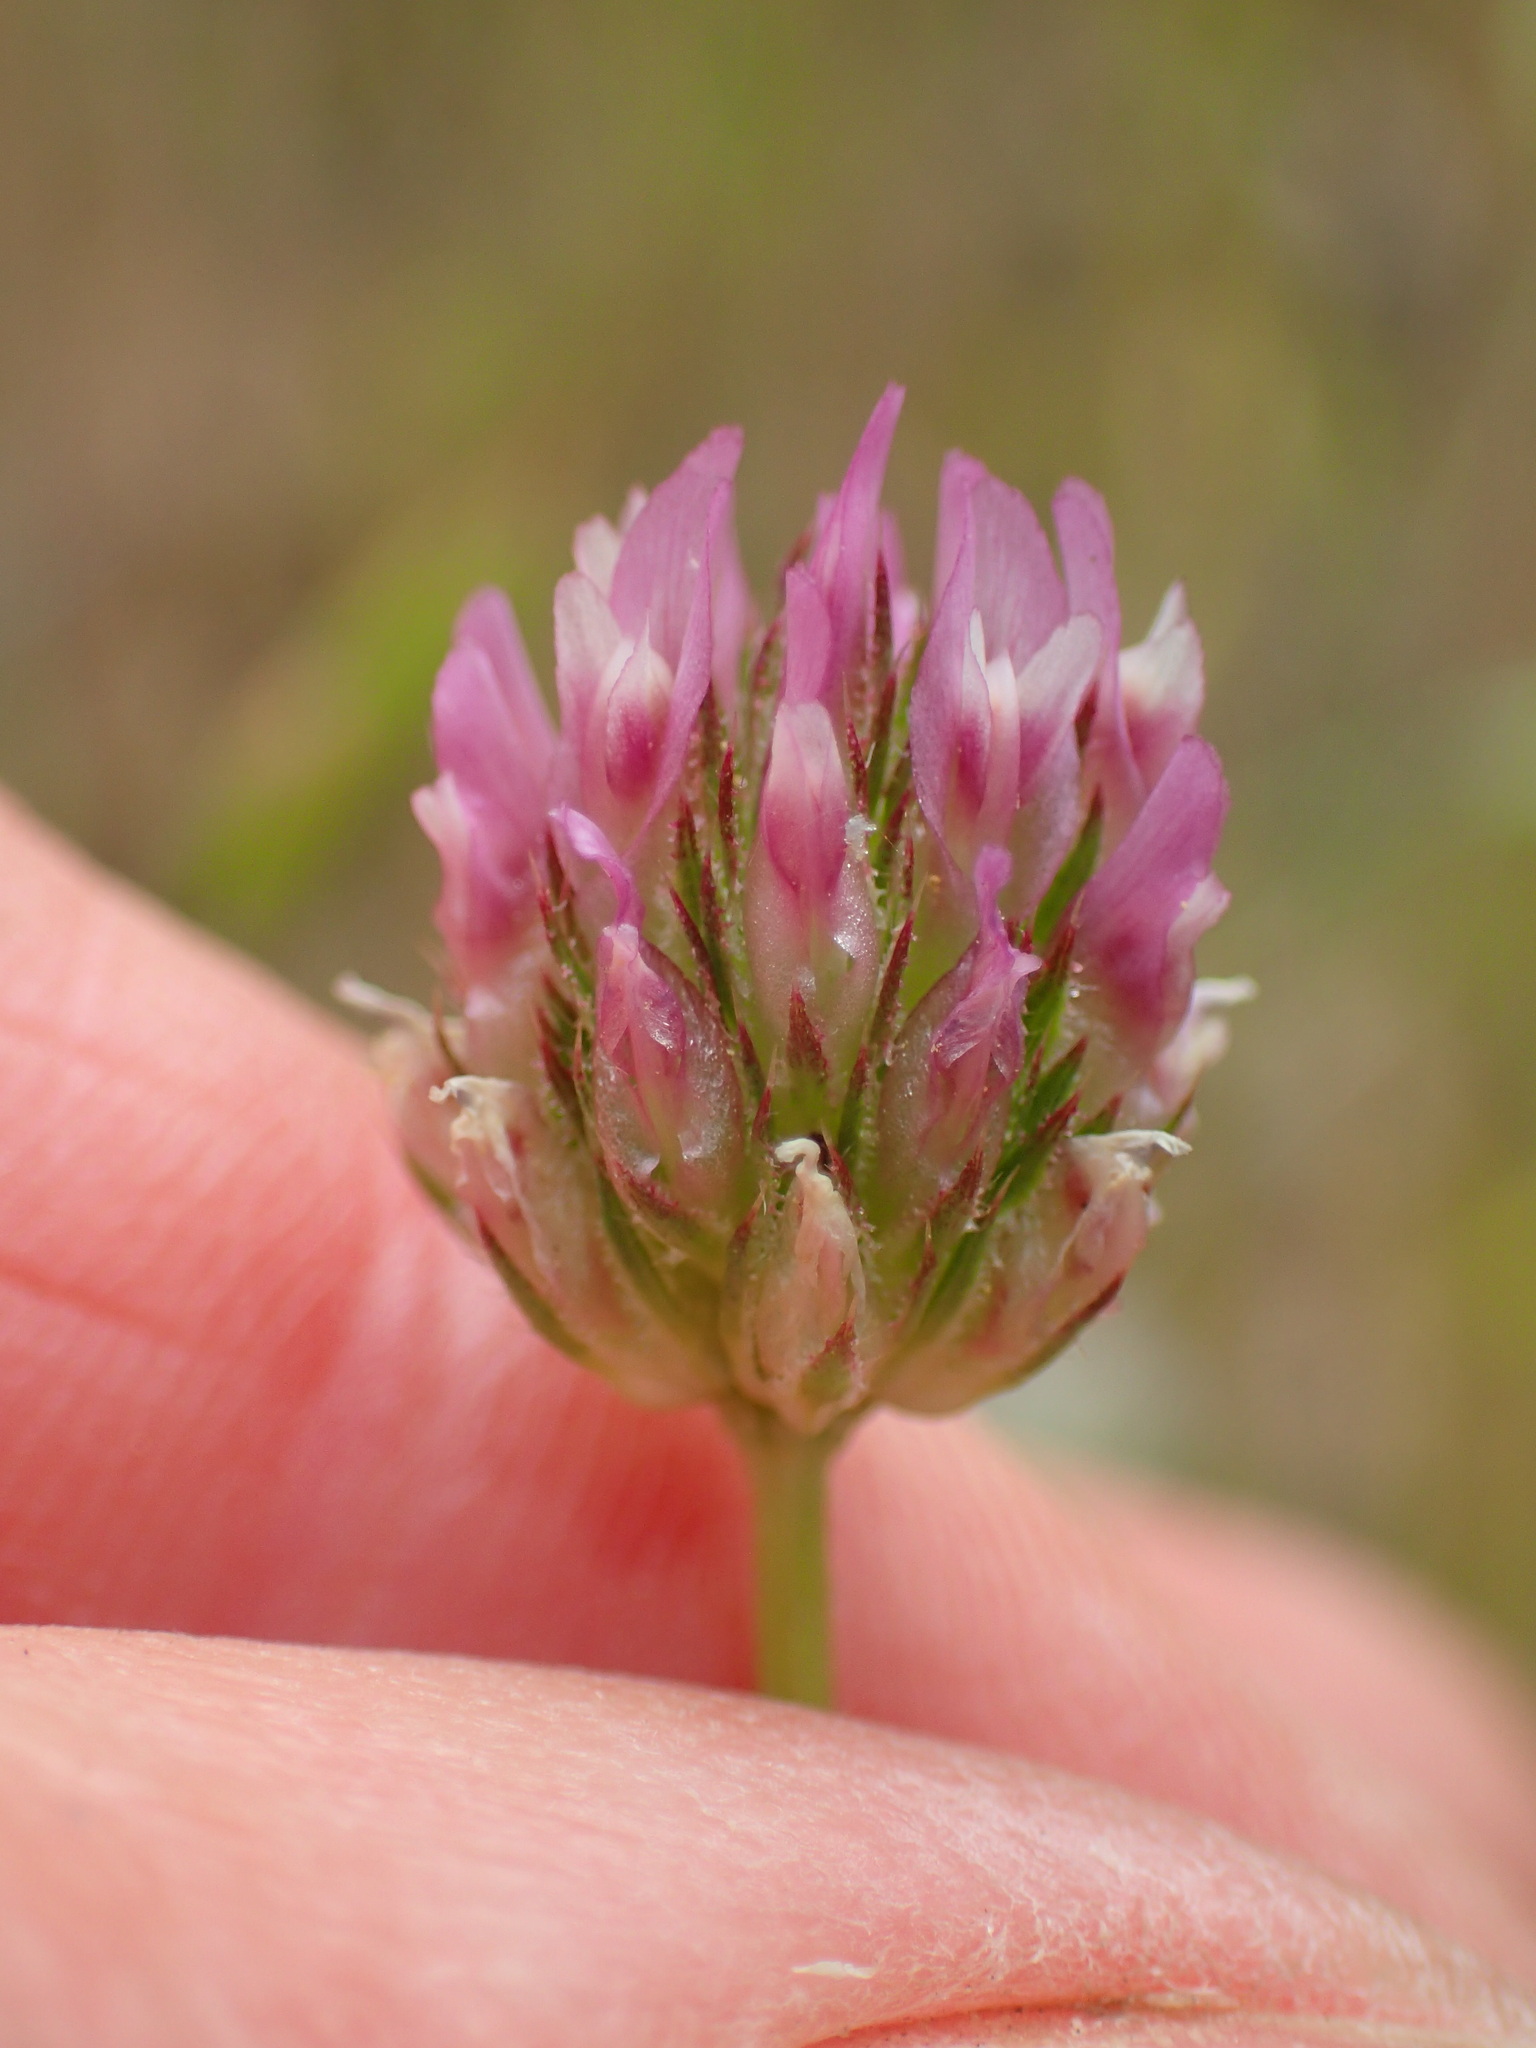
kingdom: Plantae
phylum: Tracheophyta
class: Magnoliopsida
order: Fabales
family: Fabaceae
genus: Trifolium
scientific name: Trifolium ciliolatum
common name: Foothill clover
